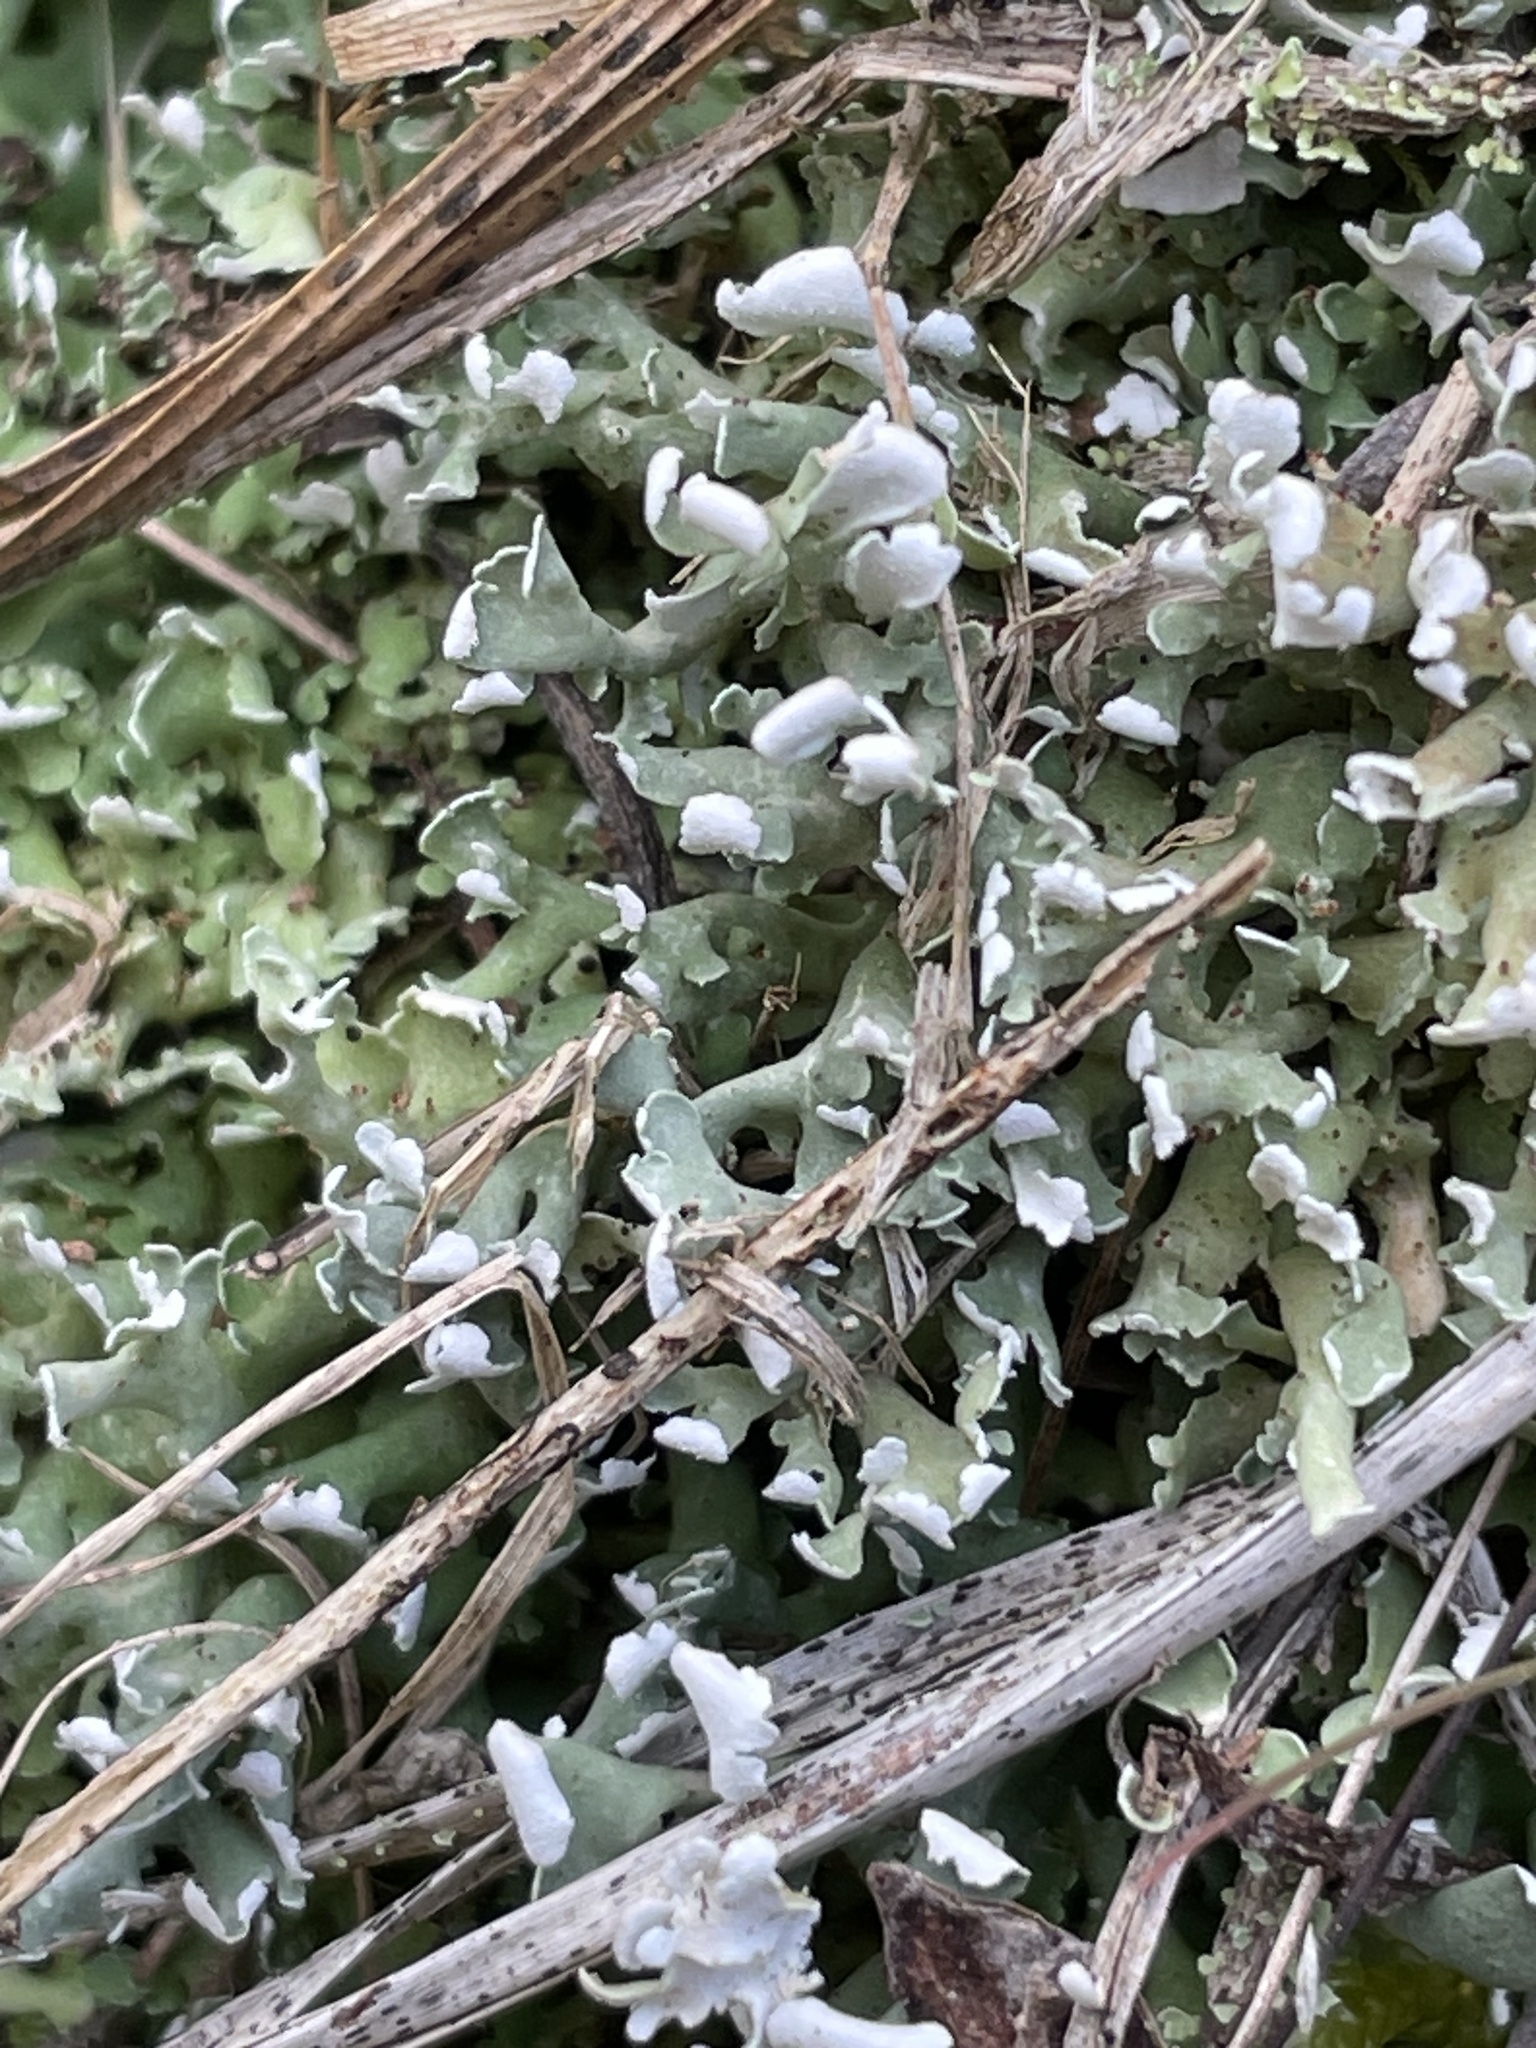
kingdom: Fungi
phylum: Ascomycota
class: Lecanoromycetes
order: Lecanorales
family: Cladoniaceae
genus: Cladonia
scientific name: Cladonia apodocarpa
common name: Stalkless cladonia
